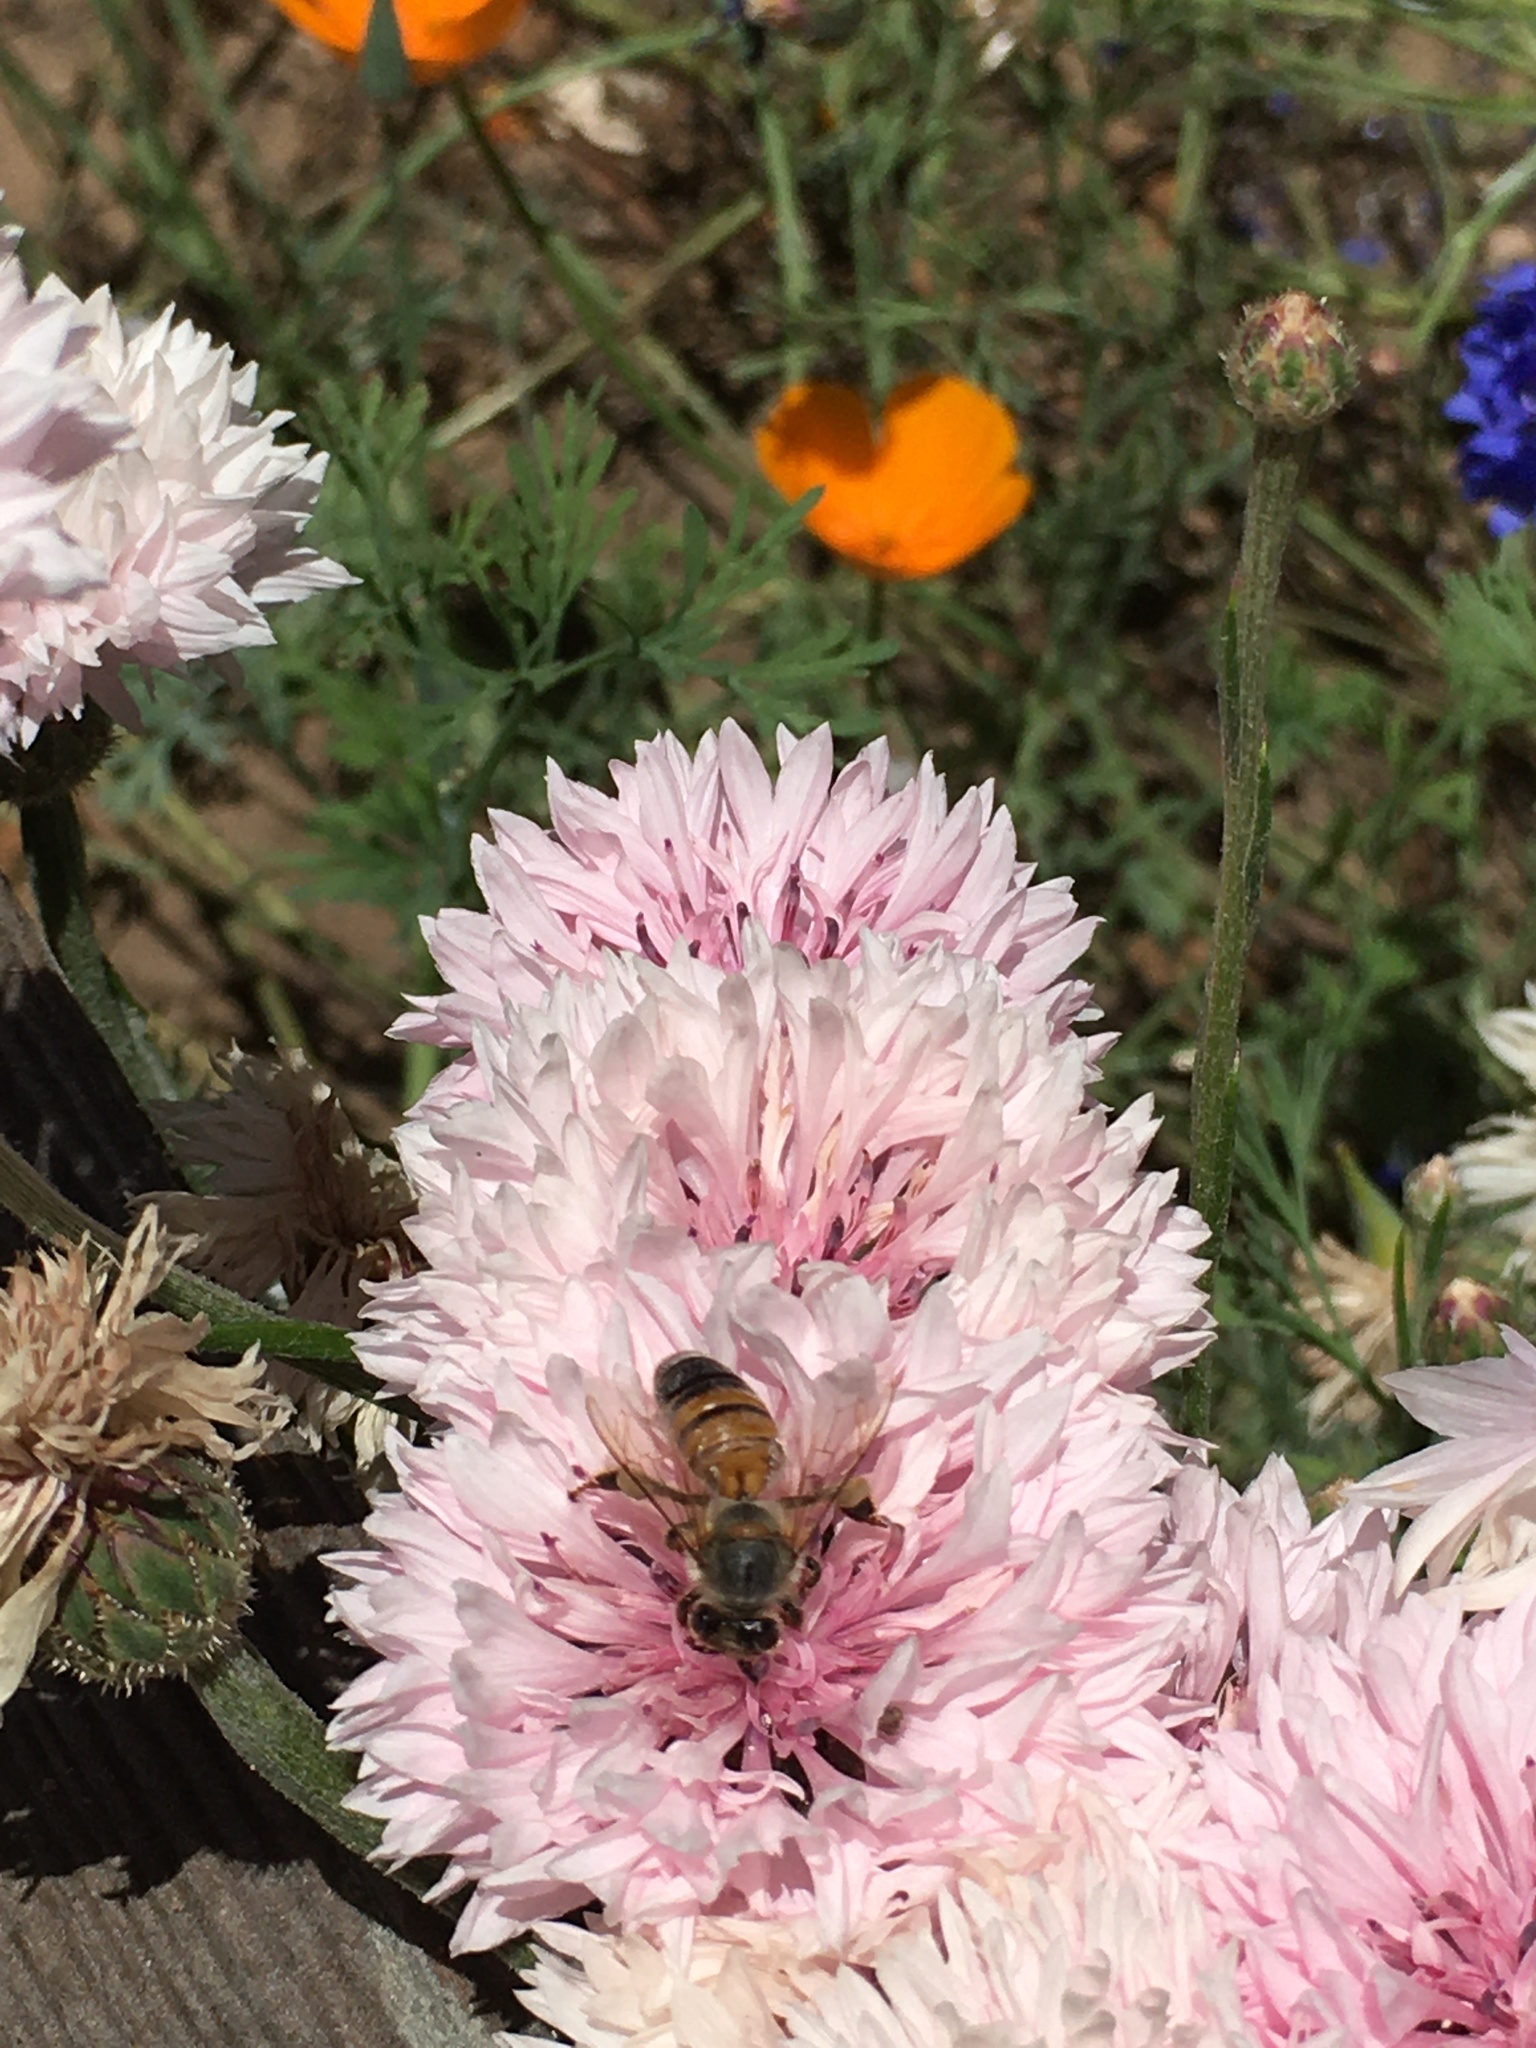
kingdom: Animalia
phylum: Arthropoda
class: Insecta
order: Hymenoptera
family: Apidae
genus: Apis
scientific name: Apis mellifera
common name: Honey bee
